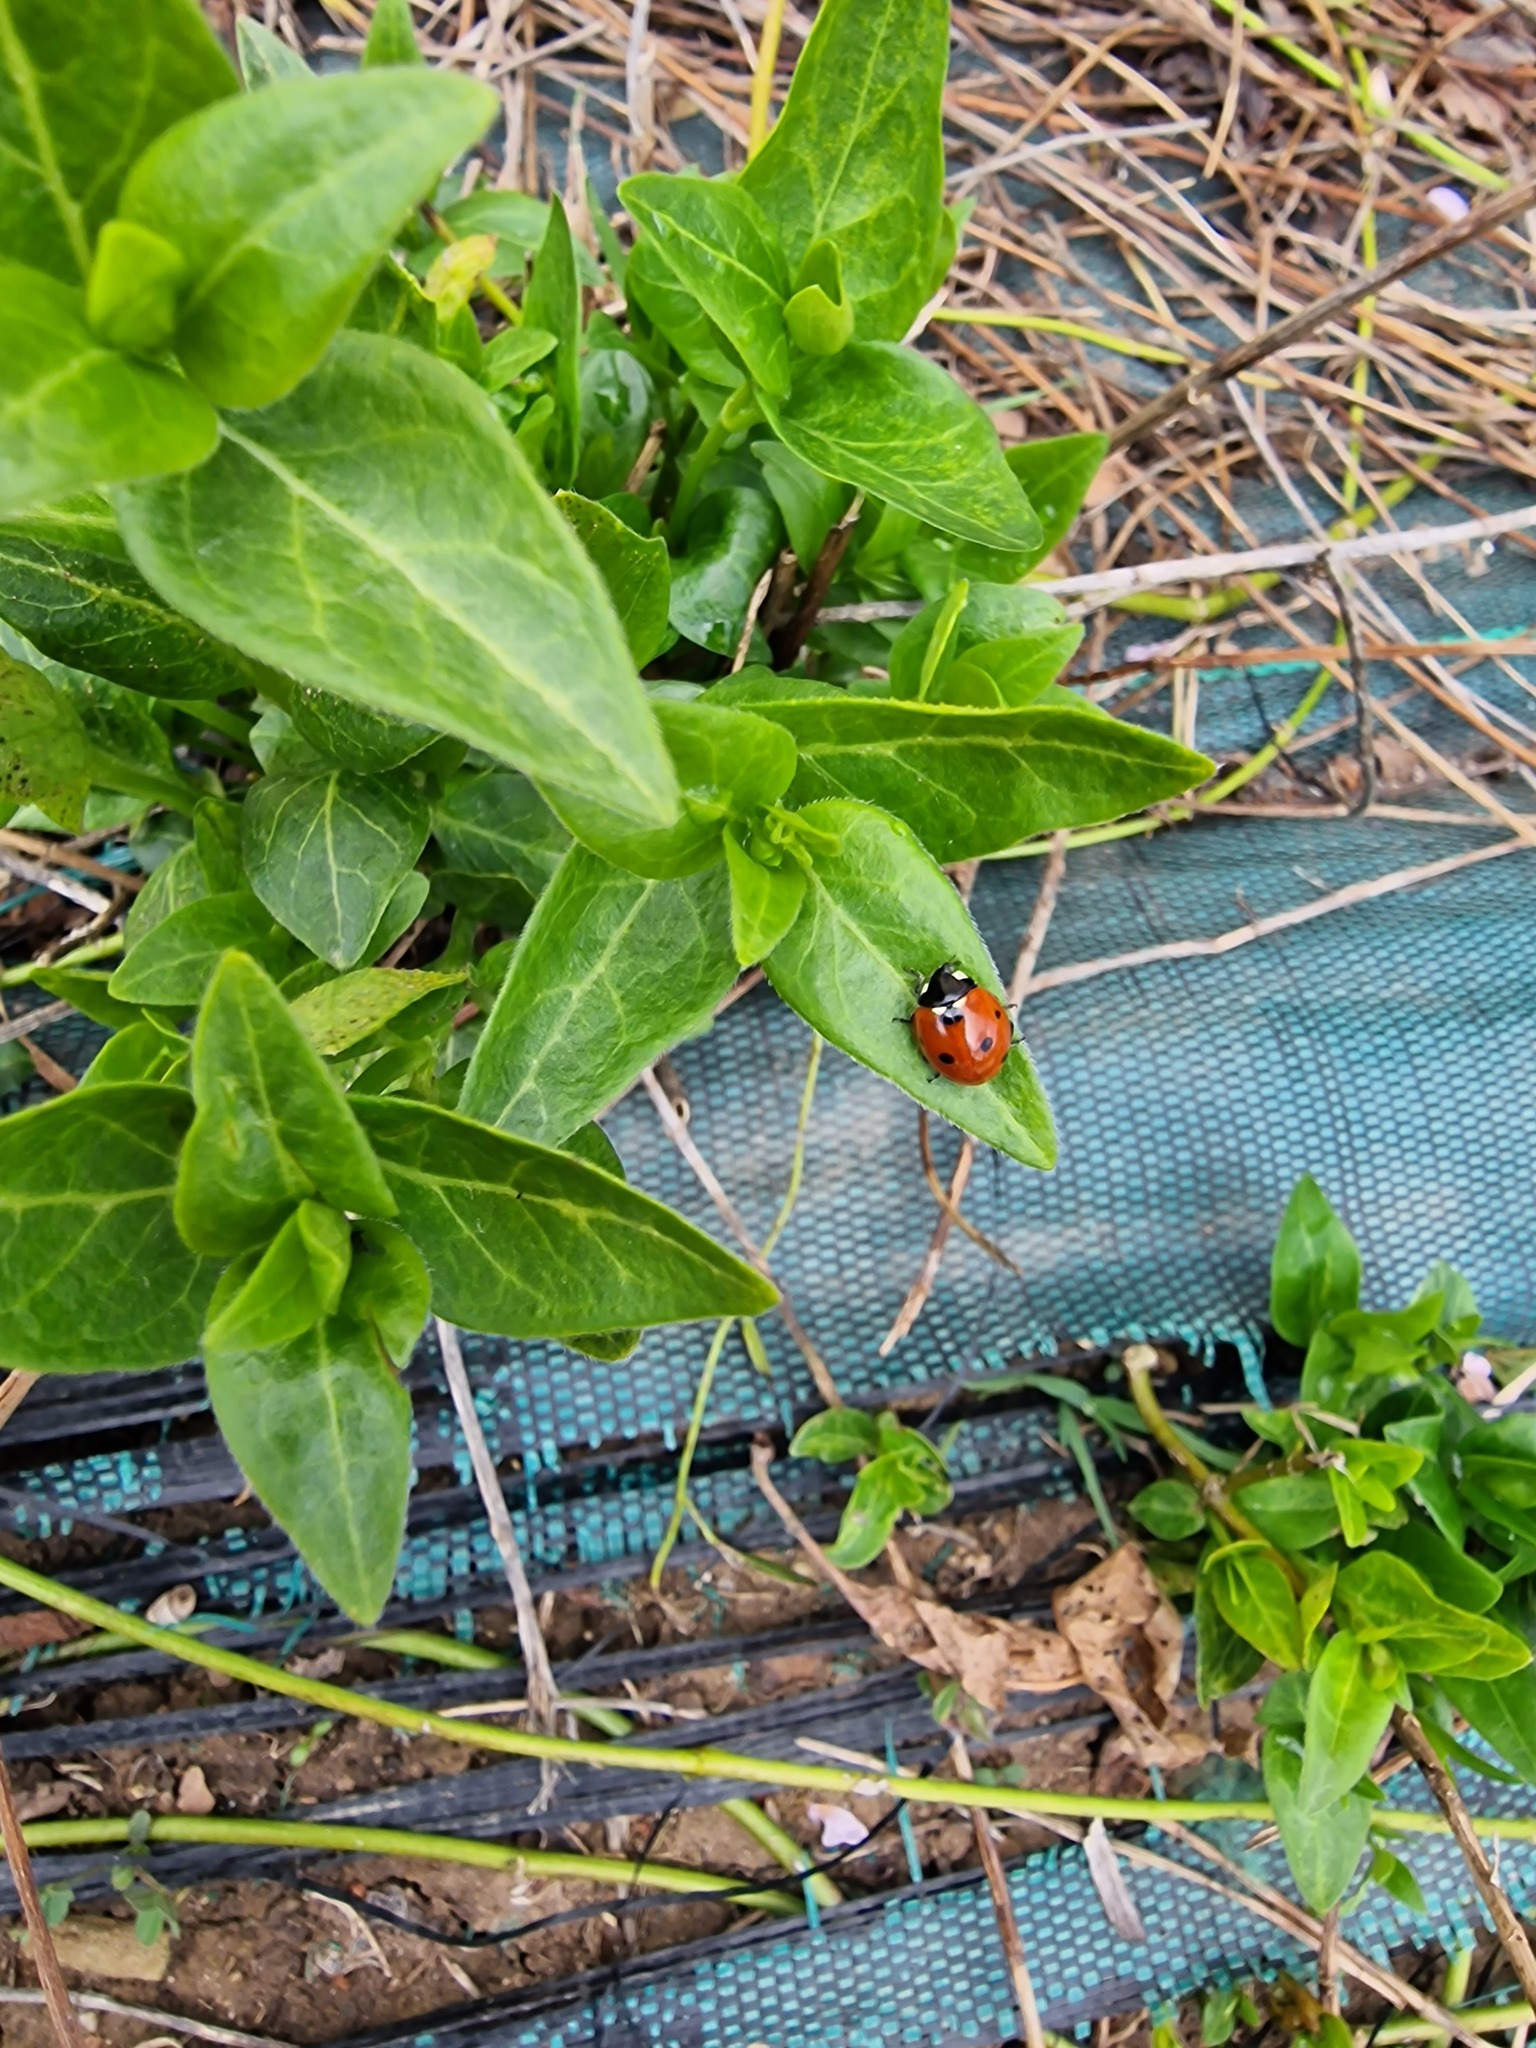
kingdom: Animalia
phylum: Arthropoda
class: Insecta
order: Coleoptera
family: Coccinellidae
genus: Coccinella
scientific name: Coccinella septempunctata
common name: Sevenspotted lady beetle
